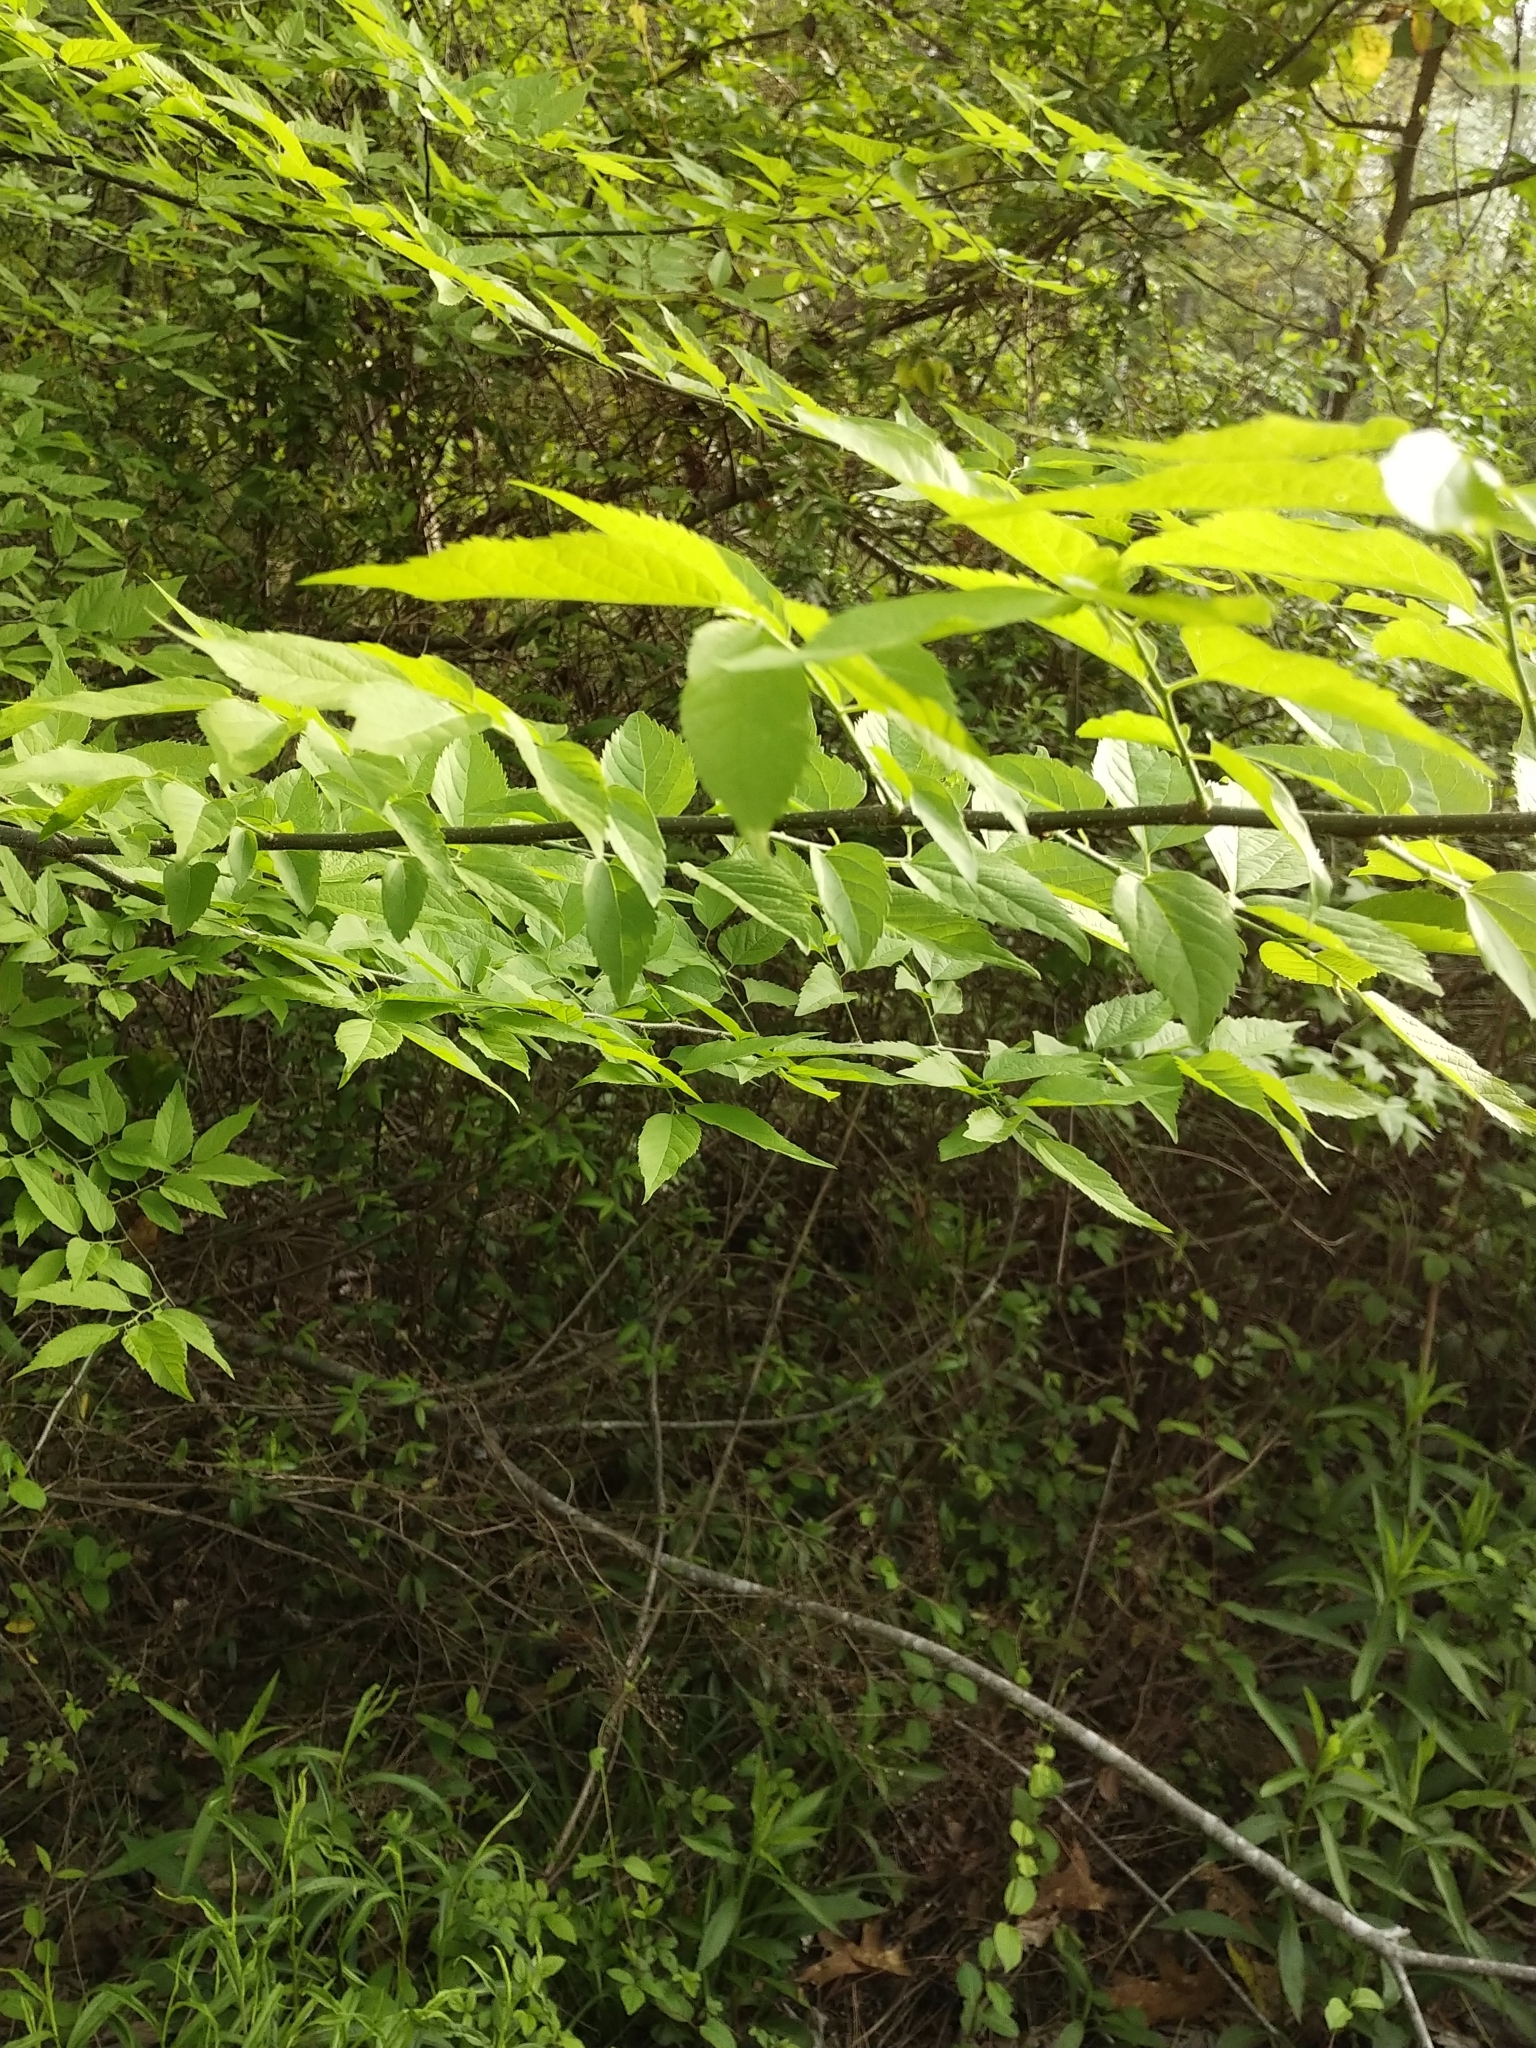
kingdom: Plantae
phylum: Tracheophyta
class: Magnoliopsida
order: Rosales
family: Cannabaceae
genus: Celtis
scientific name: Celtis laevigata
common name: Sugarberry
